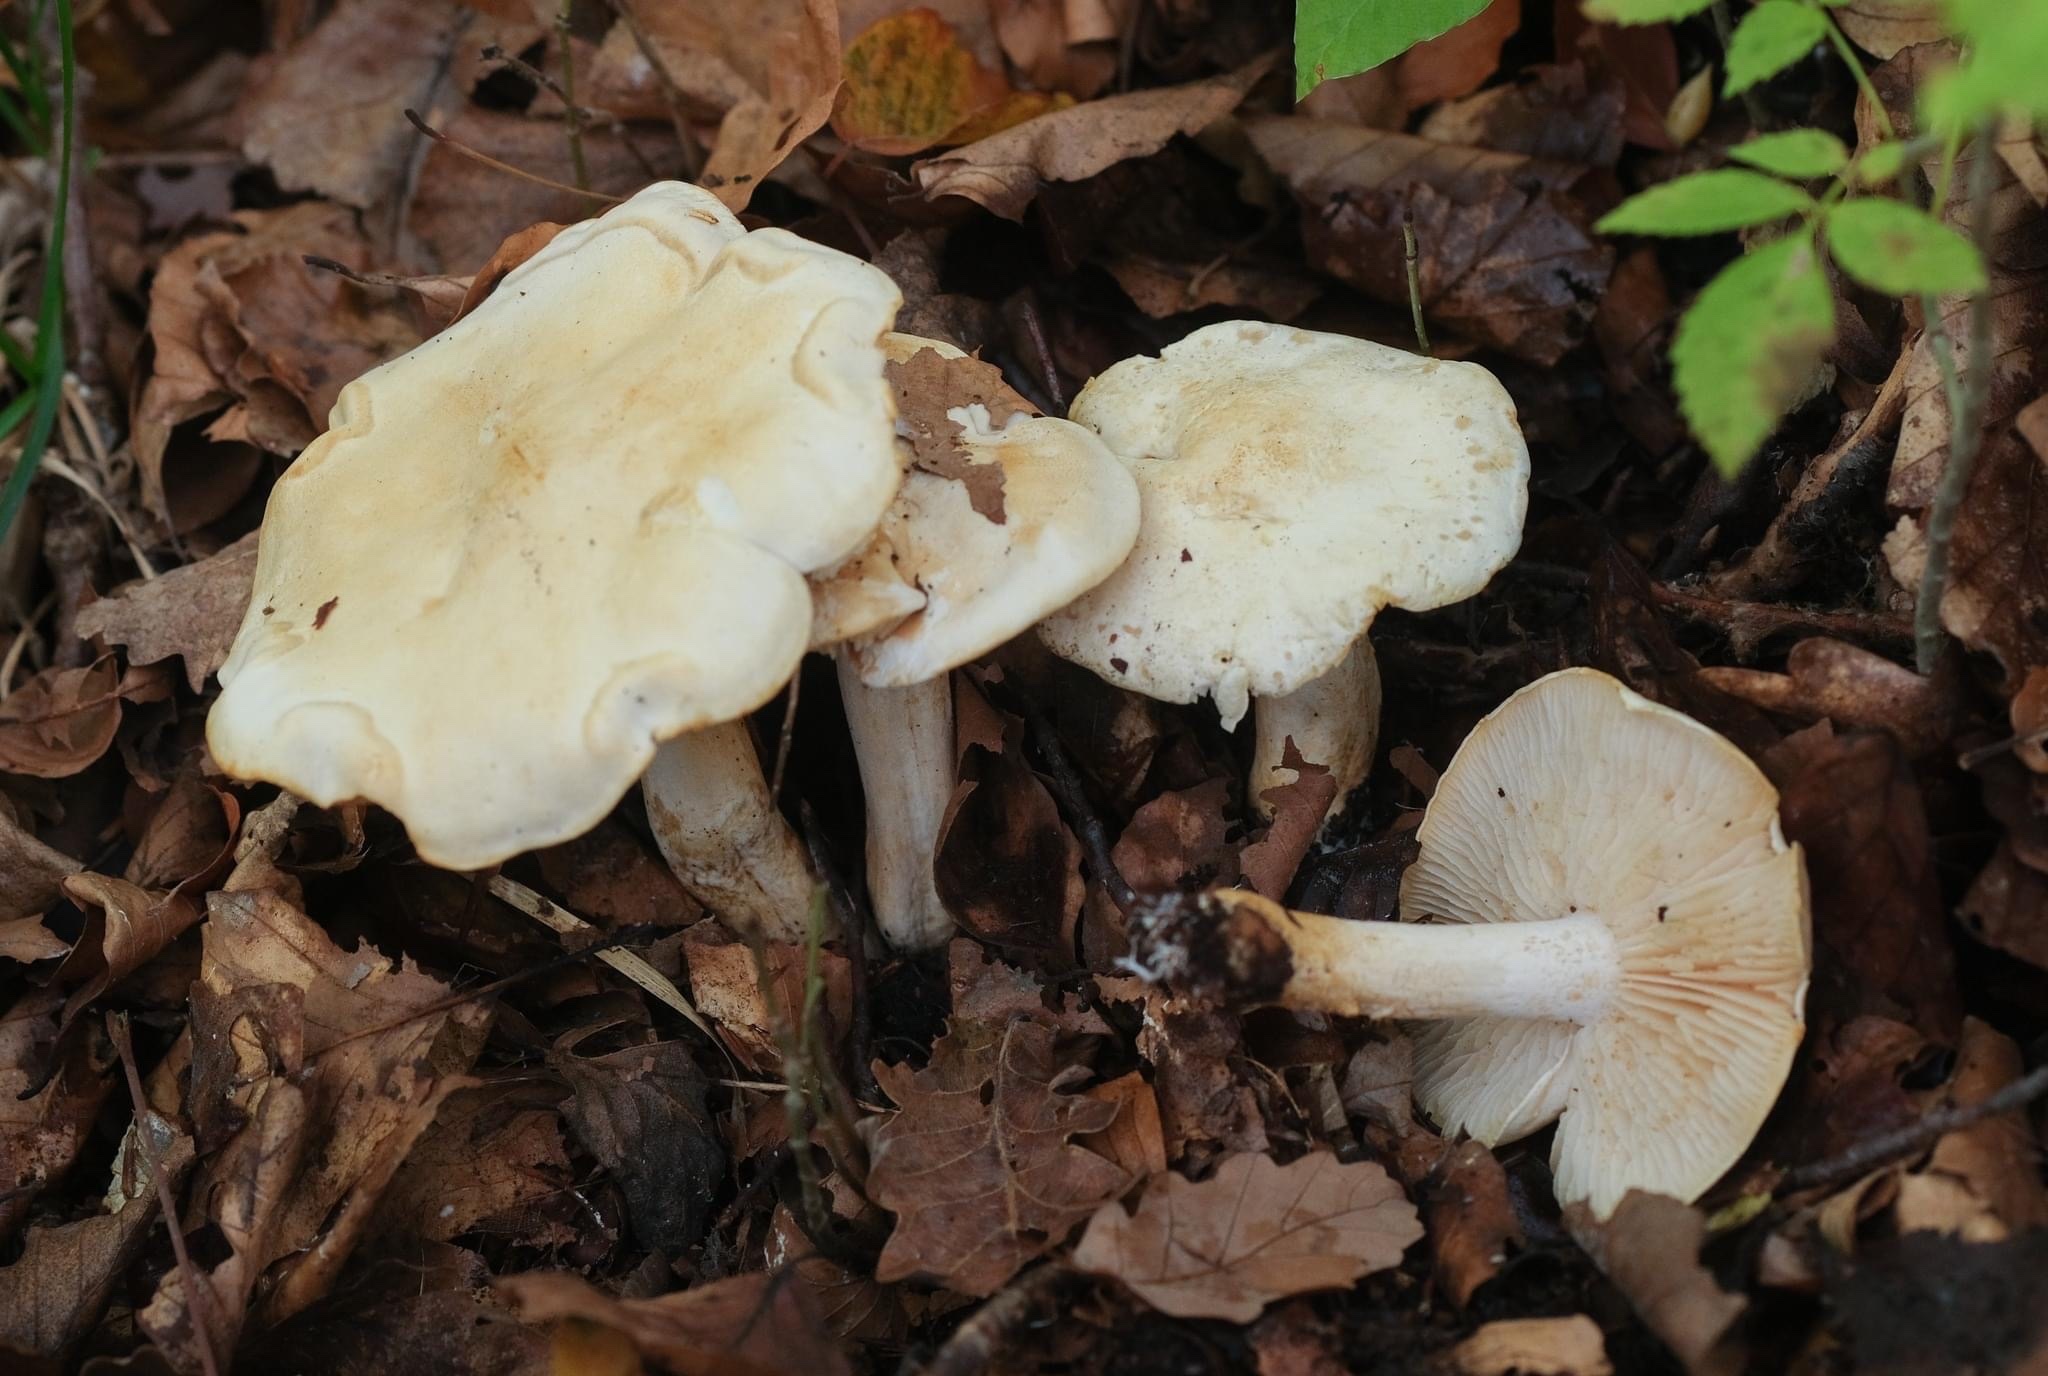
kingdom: Fungi
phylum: Basidiomycota
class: Agaricomycetes
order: Agaricales
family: Tricholomataceae
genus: Tricholoma
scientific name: Tricholoma sulphurescens
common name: Yellow staining knight
